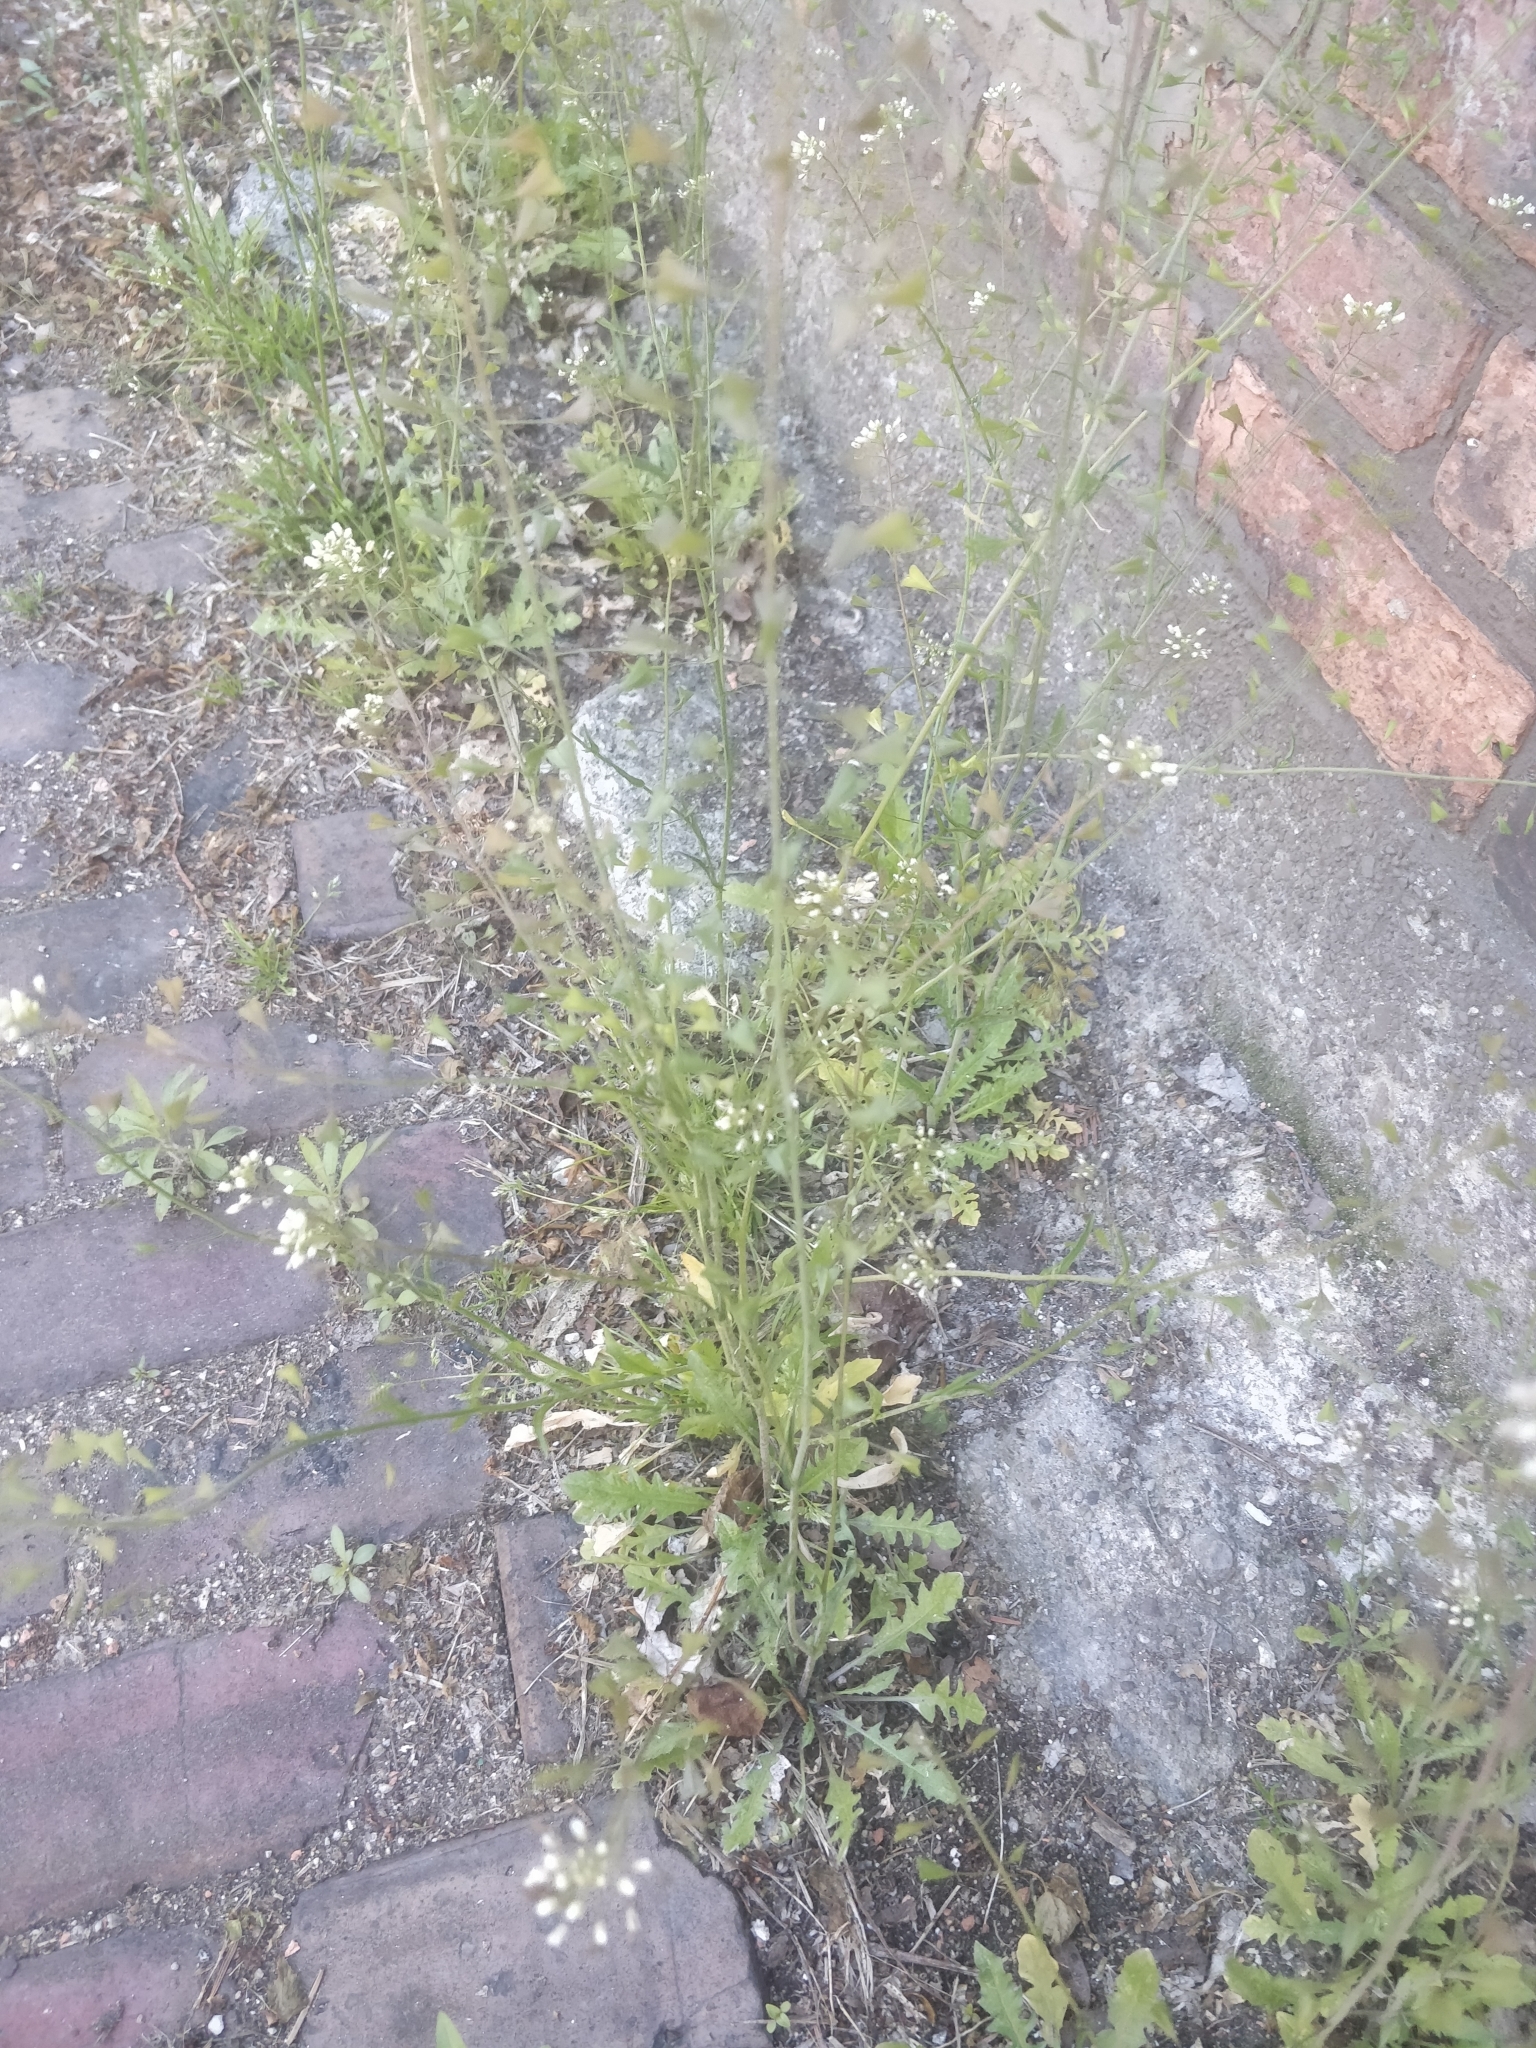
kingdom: Plantae
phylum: Tracheophyta
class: Magnoliopsida
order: Brassicales
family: Brassicaceae
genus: Capsella
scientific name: Capsella bursa-pastoris
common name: Shepherd's purse
